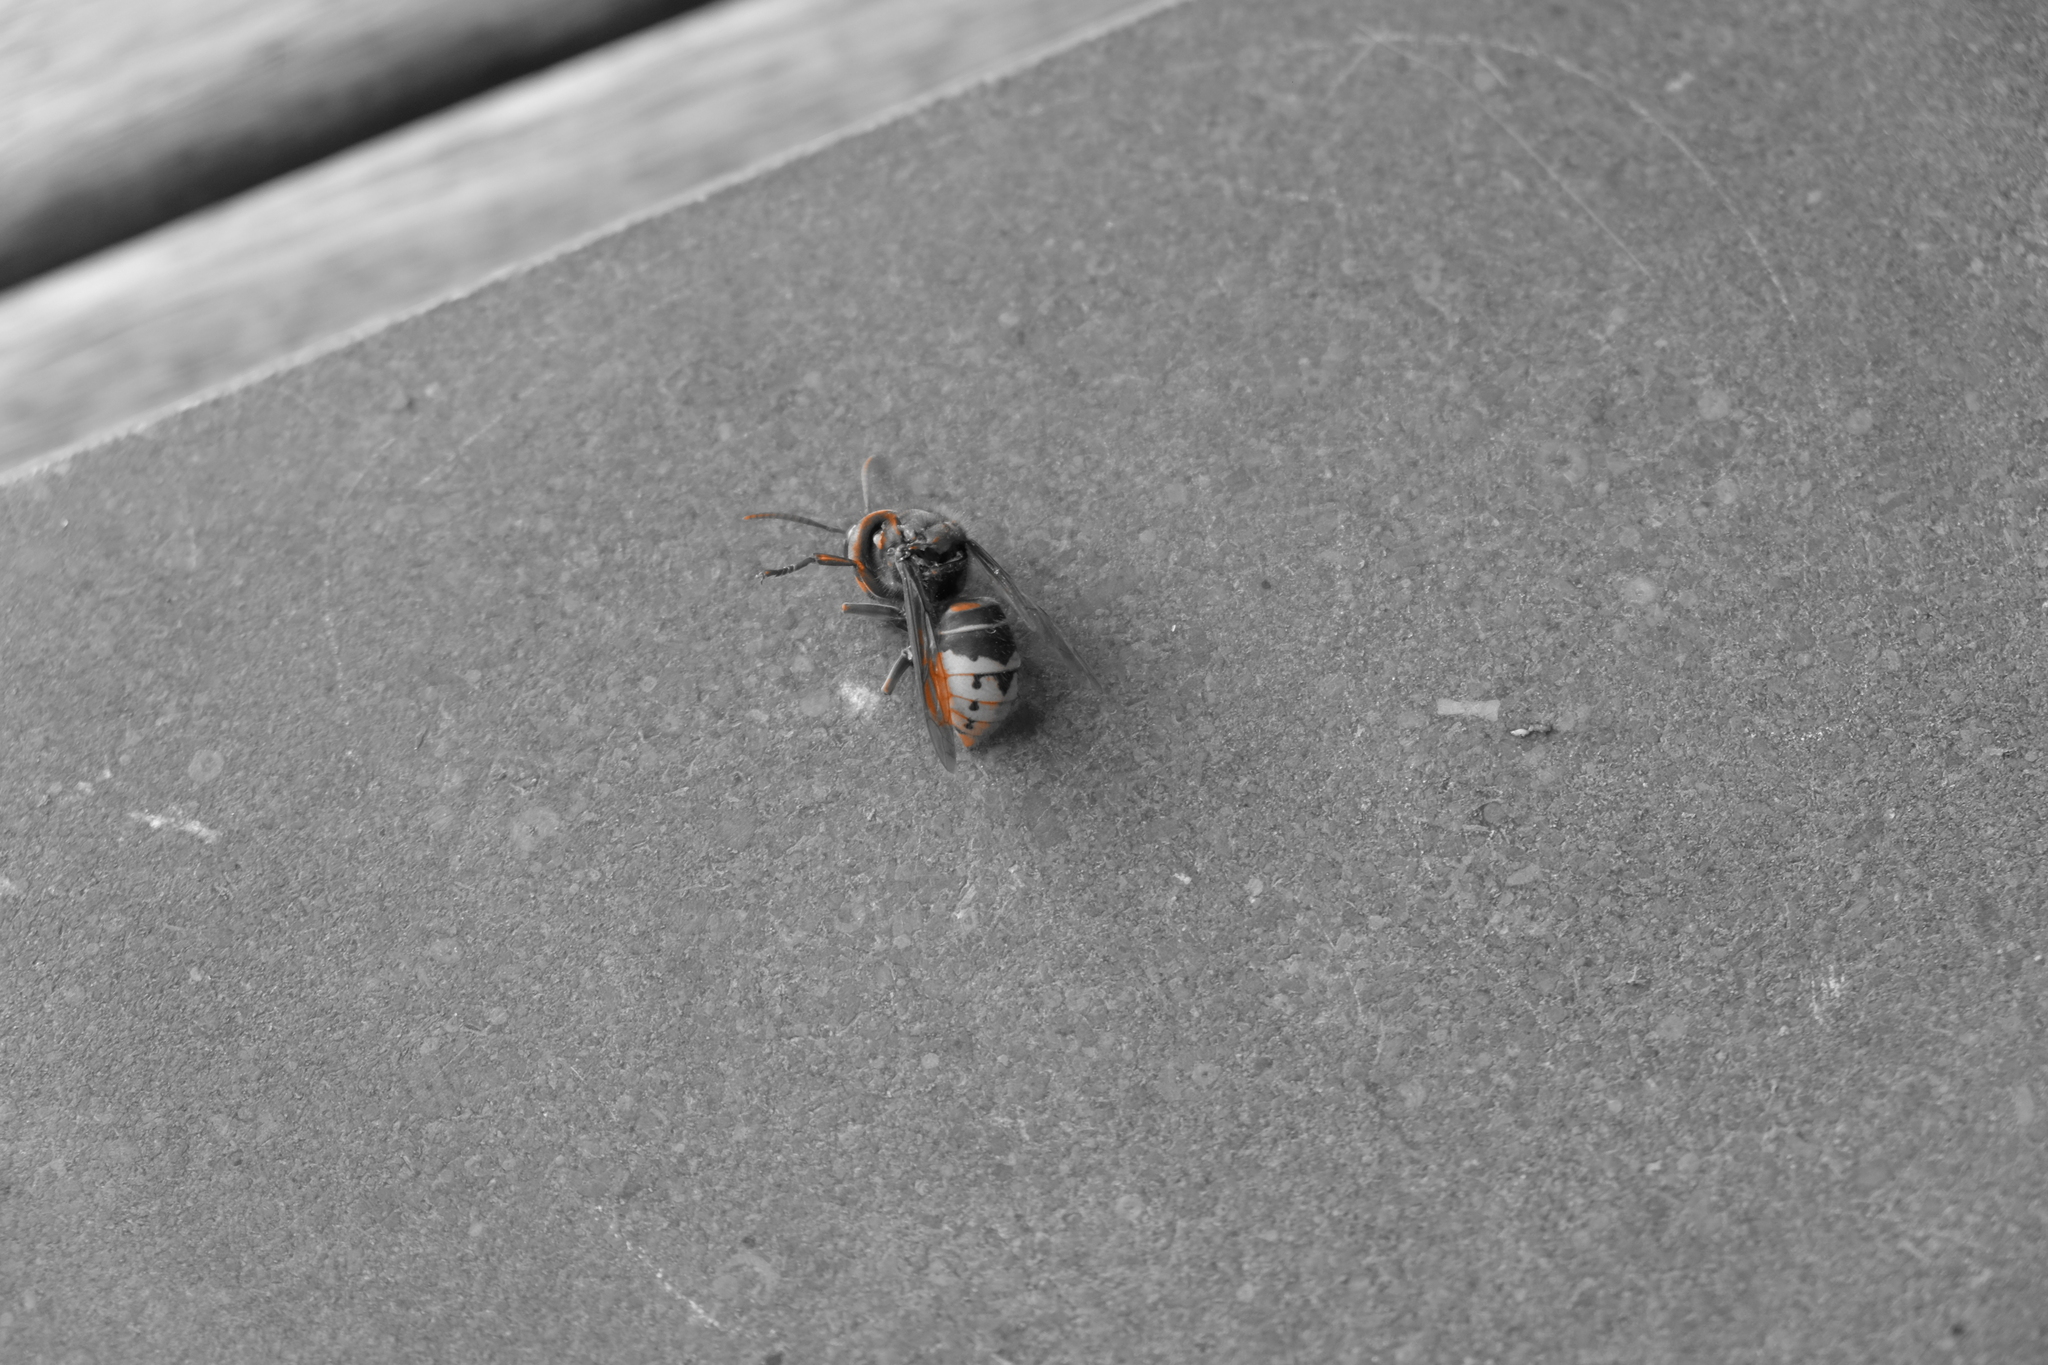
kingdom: Animalia
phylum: Arthropoda
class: Insecta
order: Hymenoptera
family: Vespidae
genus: Vespa
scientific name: Vespa crabro
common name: Hornet
